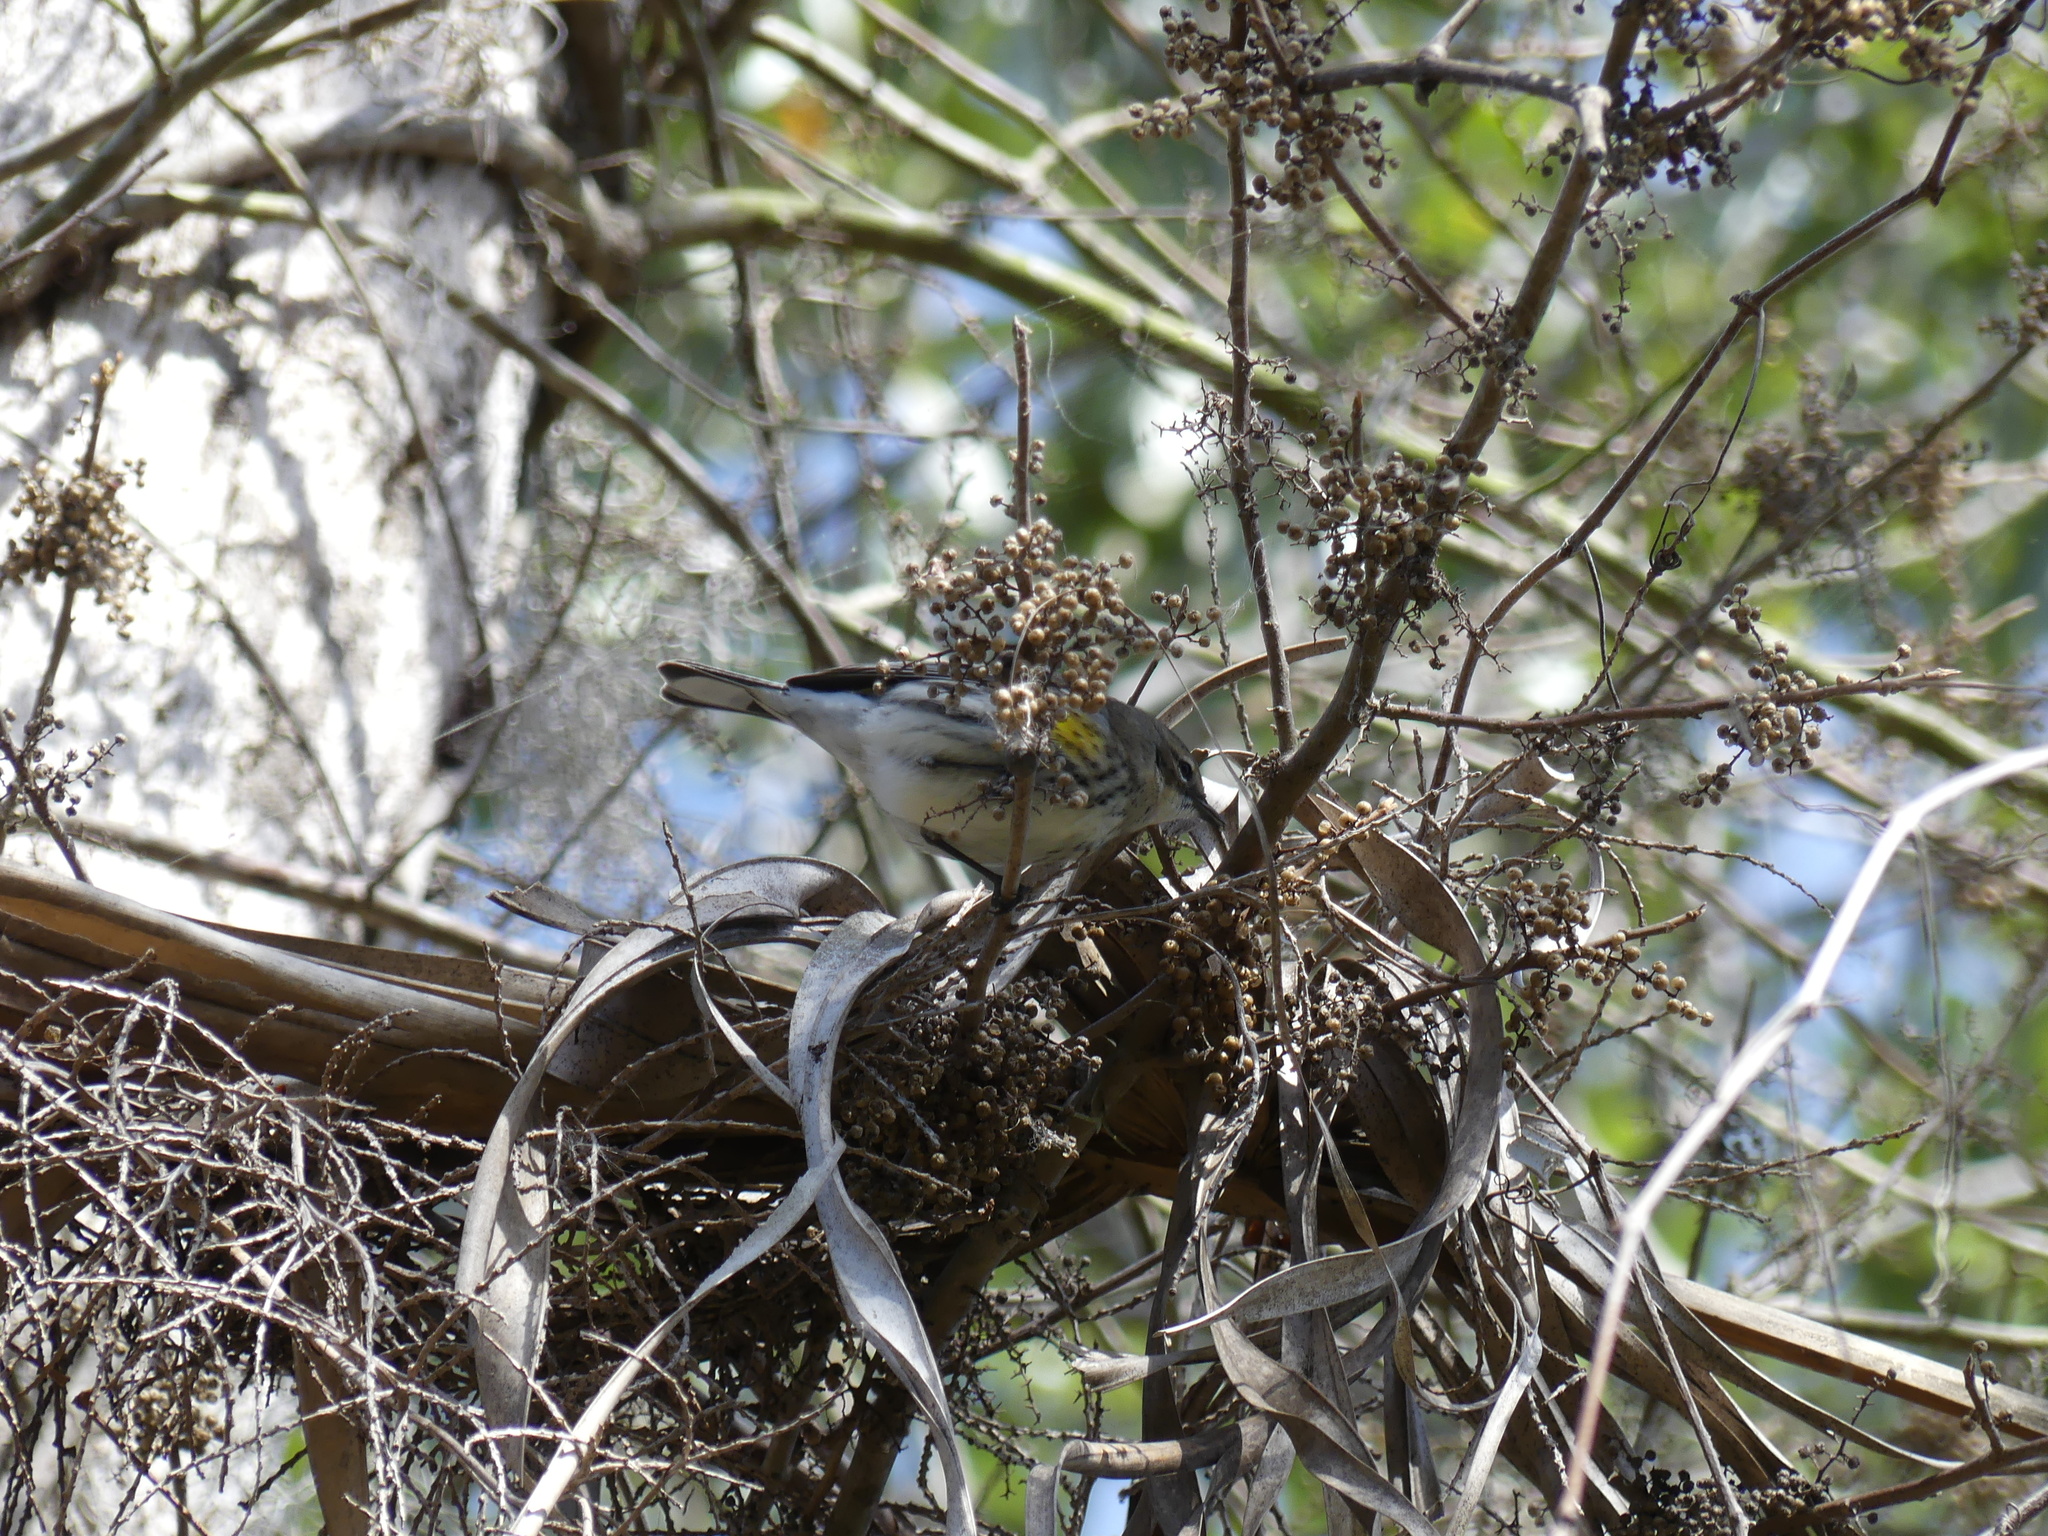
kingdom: Animalia
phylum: Chordata
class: Aves
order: Passeriformes
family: Parulidae
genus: Setophaga
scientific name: Setophaga coronata
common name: Myrtle warbler
